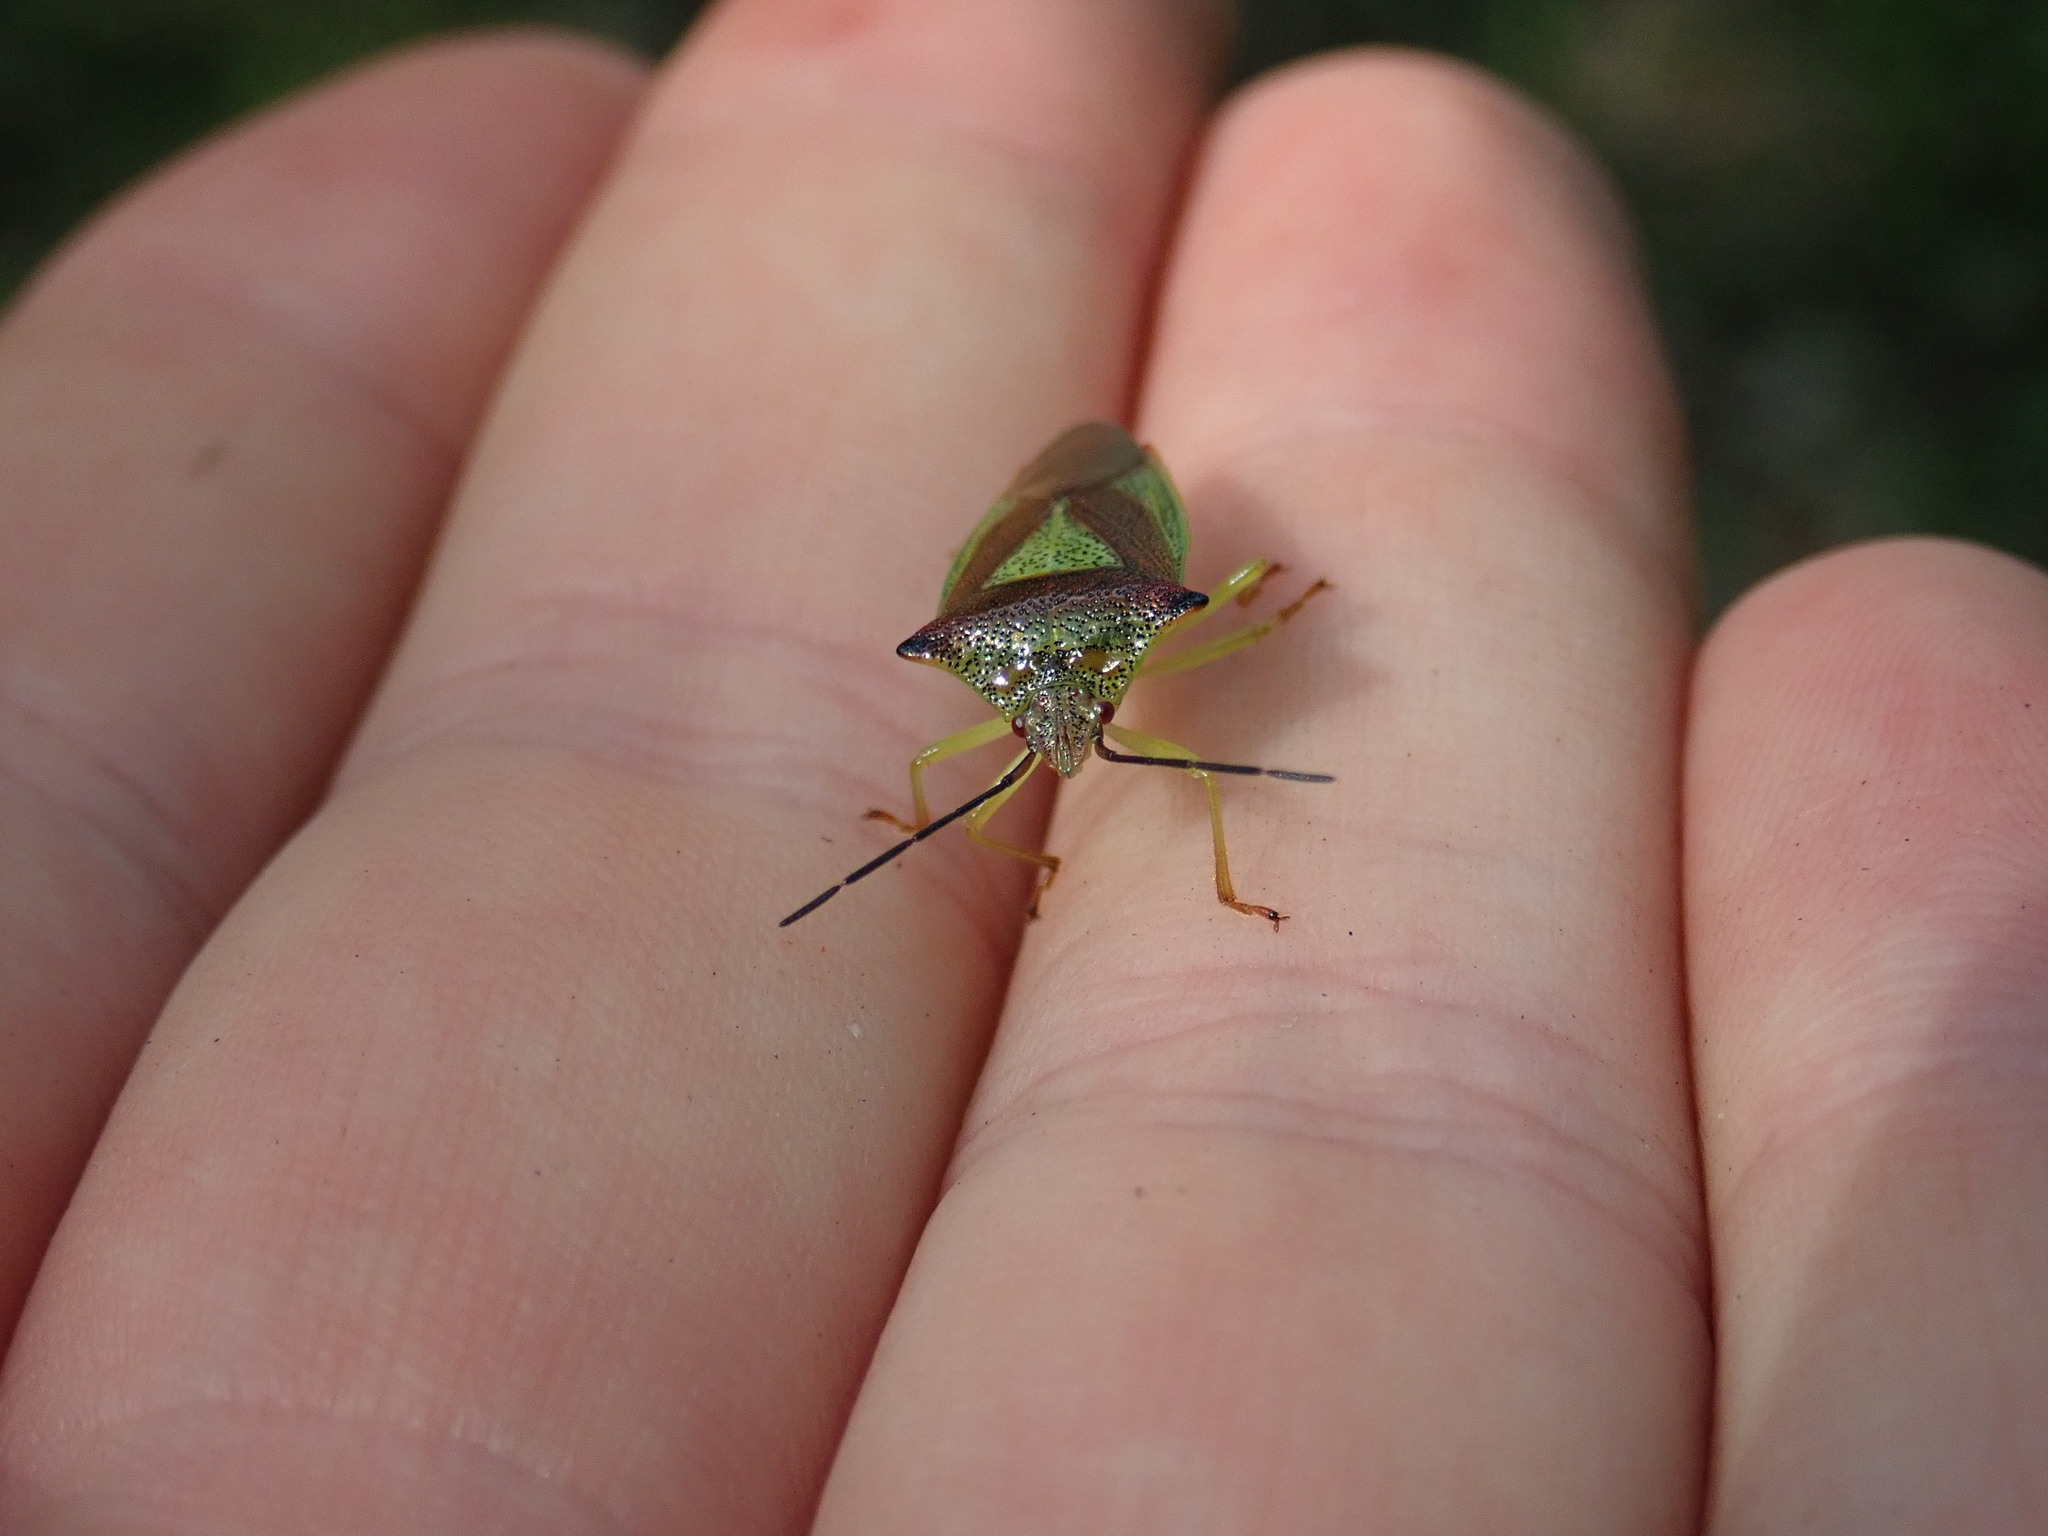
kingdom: Animalia
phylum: Arthropoda
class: Insecta
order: Hemiptera
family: Acanthosomatidae
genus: Acanthosoma
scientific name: Acanthosoma haemorrhoidale
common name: Hawthorn shieldbug
